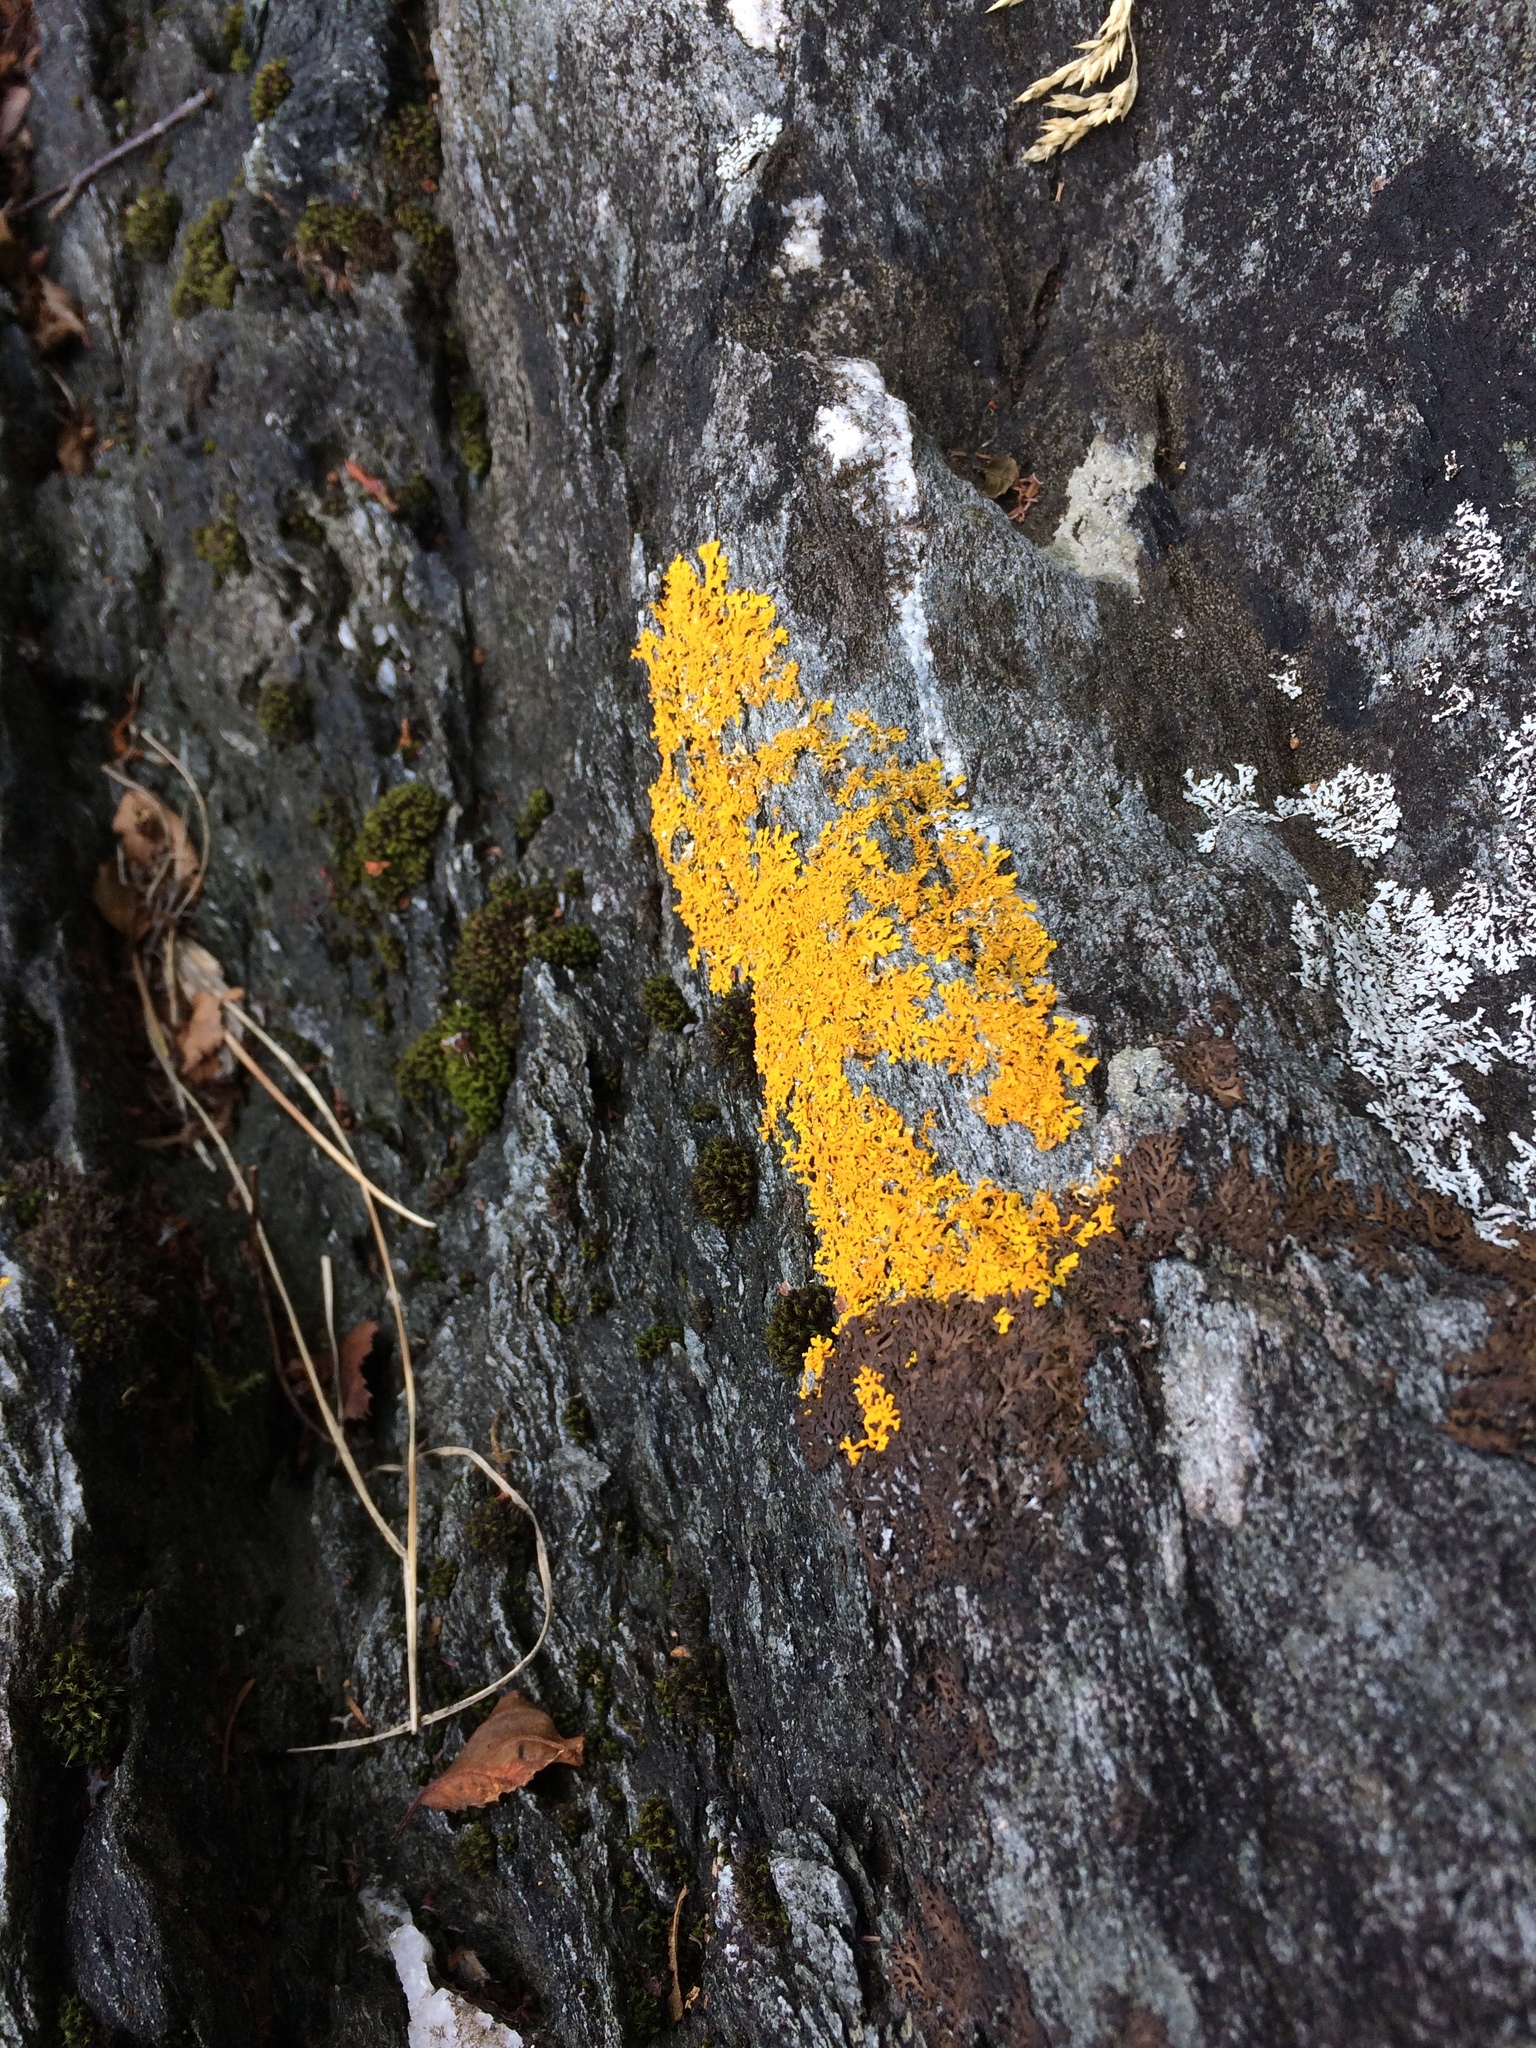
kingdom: Fungi
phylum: Ascomycota
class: Lecanoromycetes
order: Teloschistales
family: Teloschistaceae
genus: Xanthoria
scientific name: Xanthoria parietina
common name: Common orange lichen
